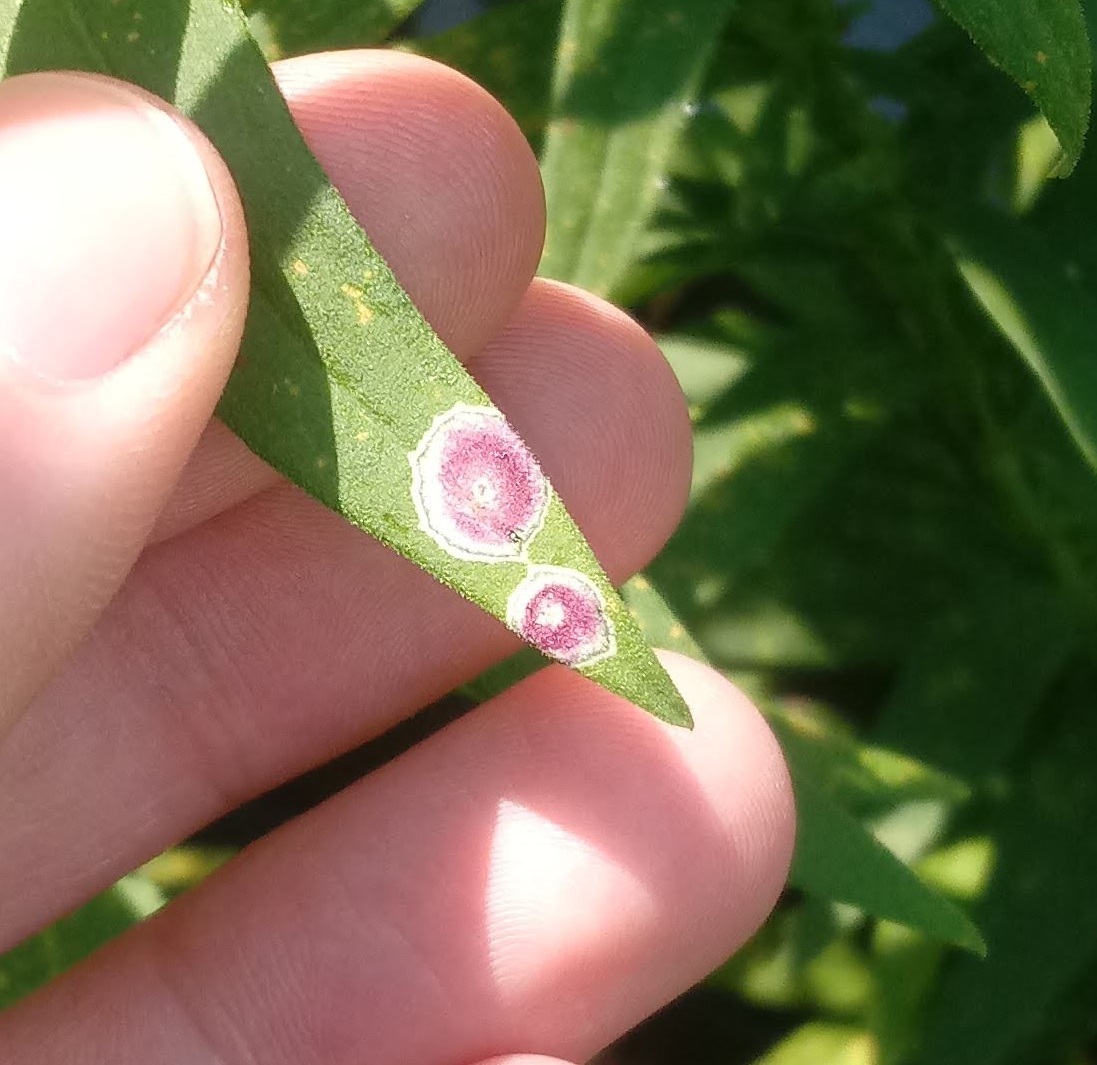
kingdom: Animalia
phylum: Arthropoda
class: Insecta
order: Diptera
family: Cecidomyiidae
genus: Asteromyia
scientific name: Asteromyia carbonifera
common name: Carbonifera goldenrod gall midge
